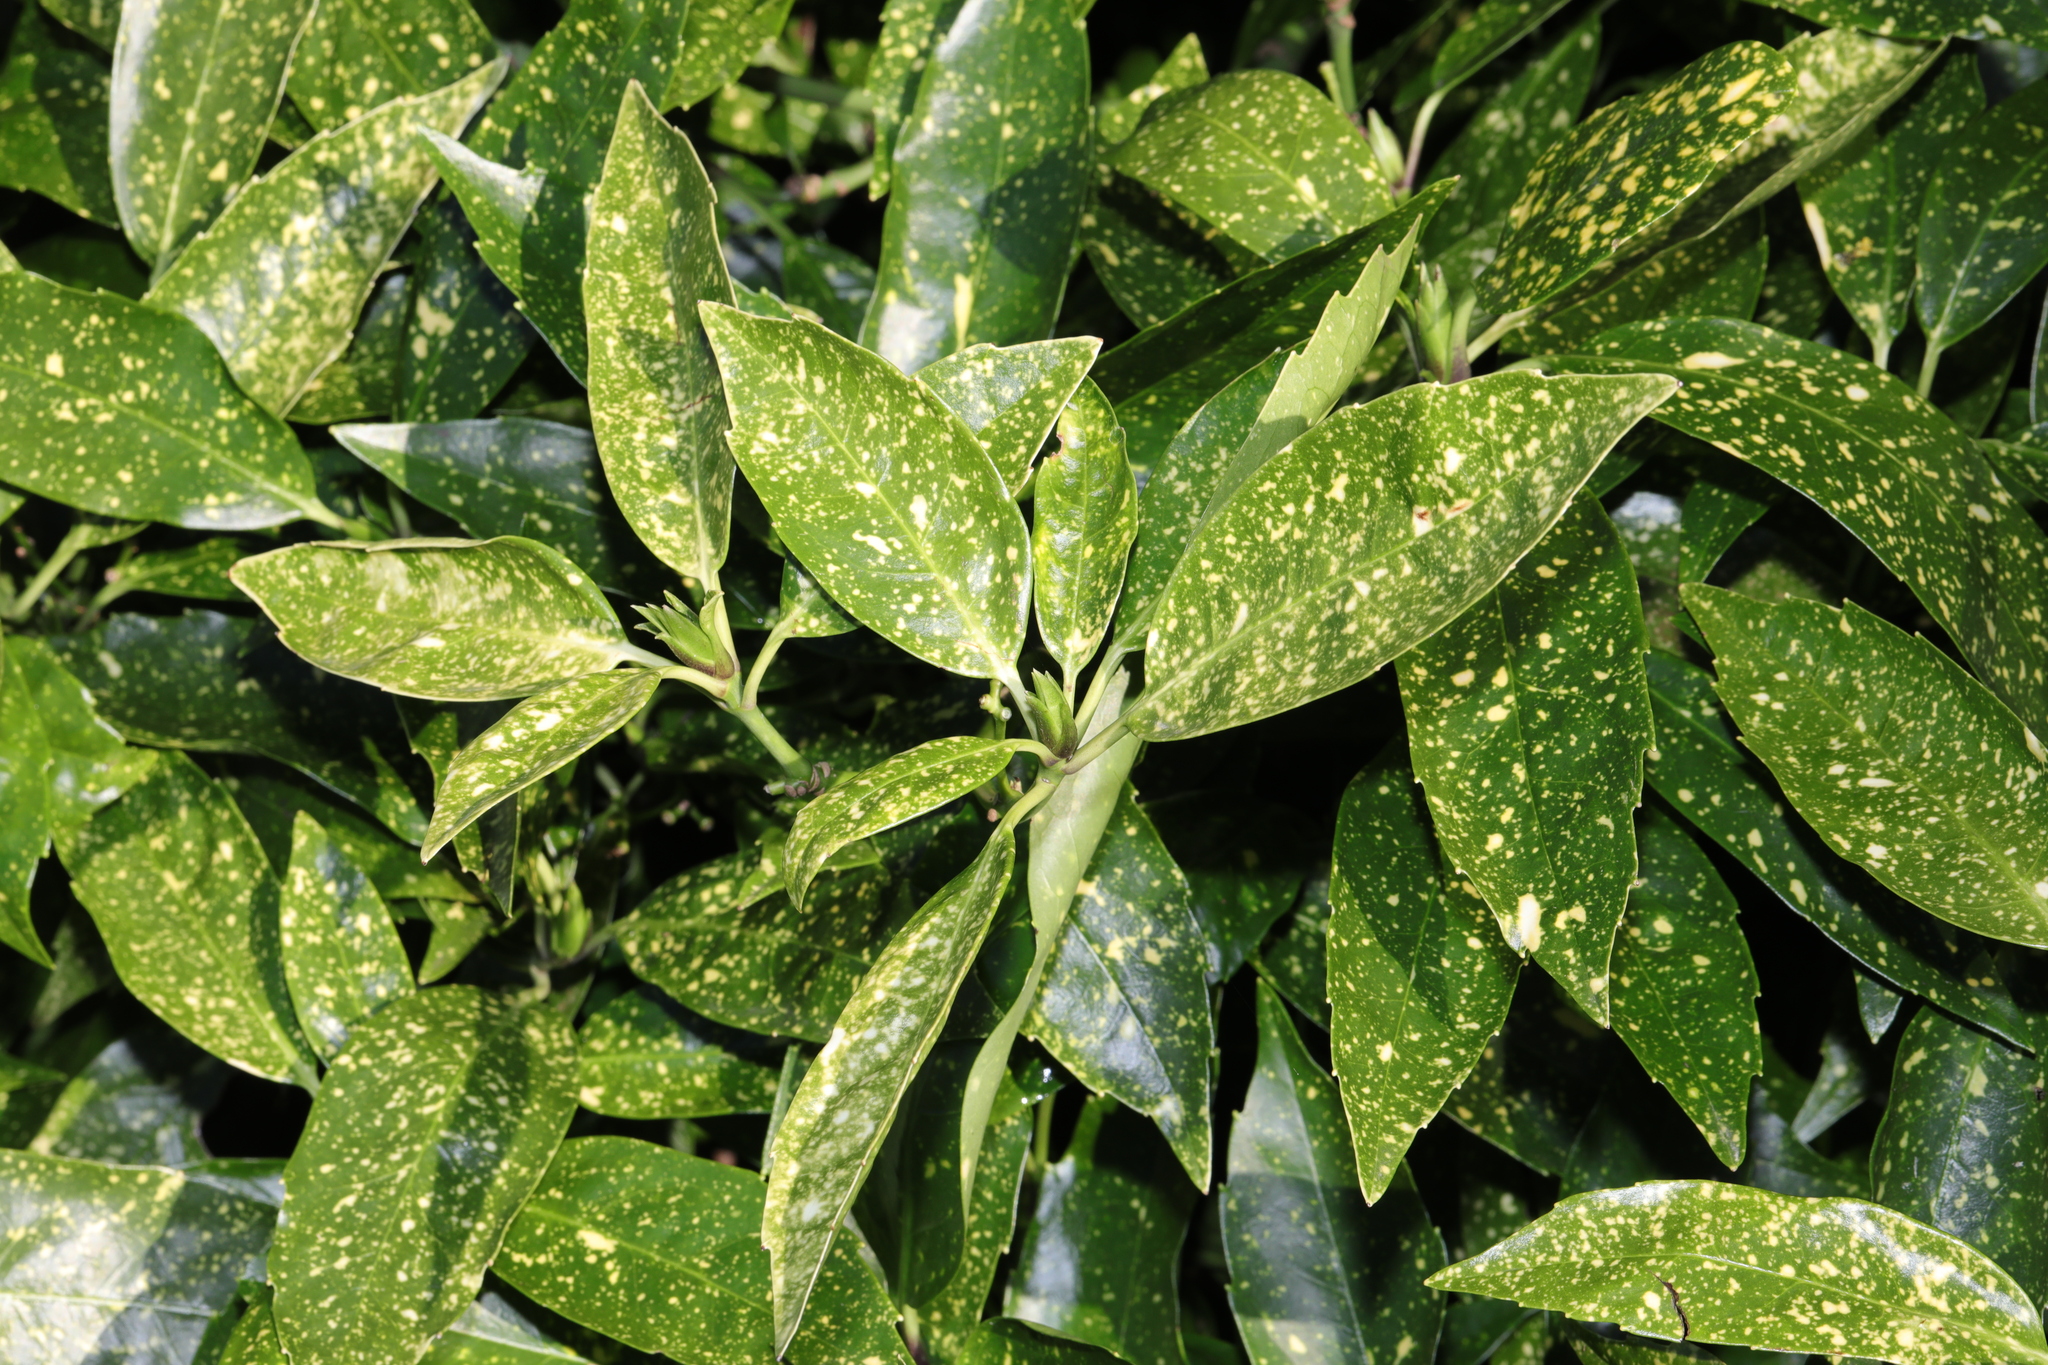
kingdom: Plantae
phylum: Tracheophyta
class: Magnoliopsida
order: Garryales
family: Garryaceae
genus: Aucuba
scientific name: Aucuba japonica
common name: Spotted-laurel
